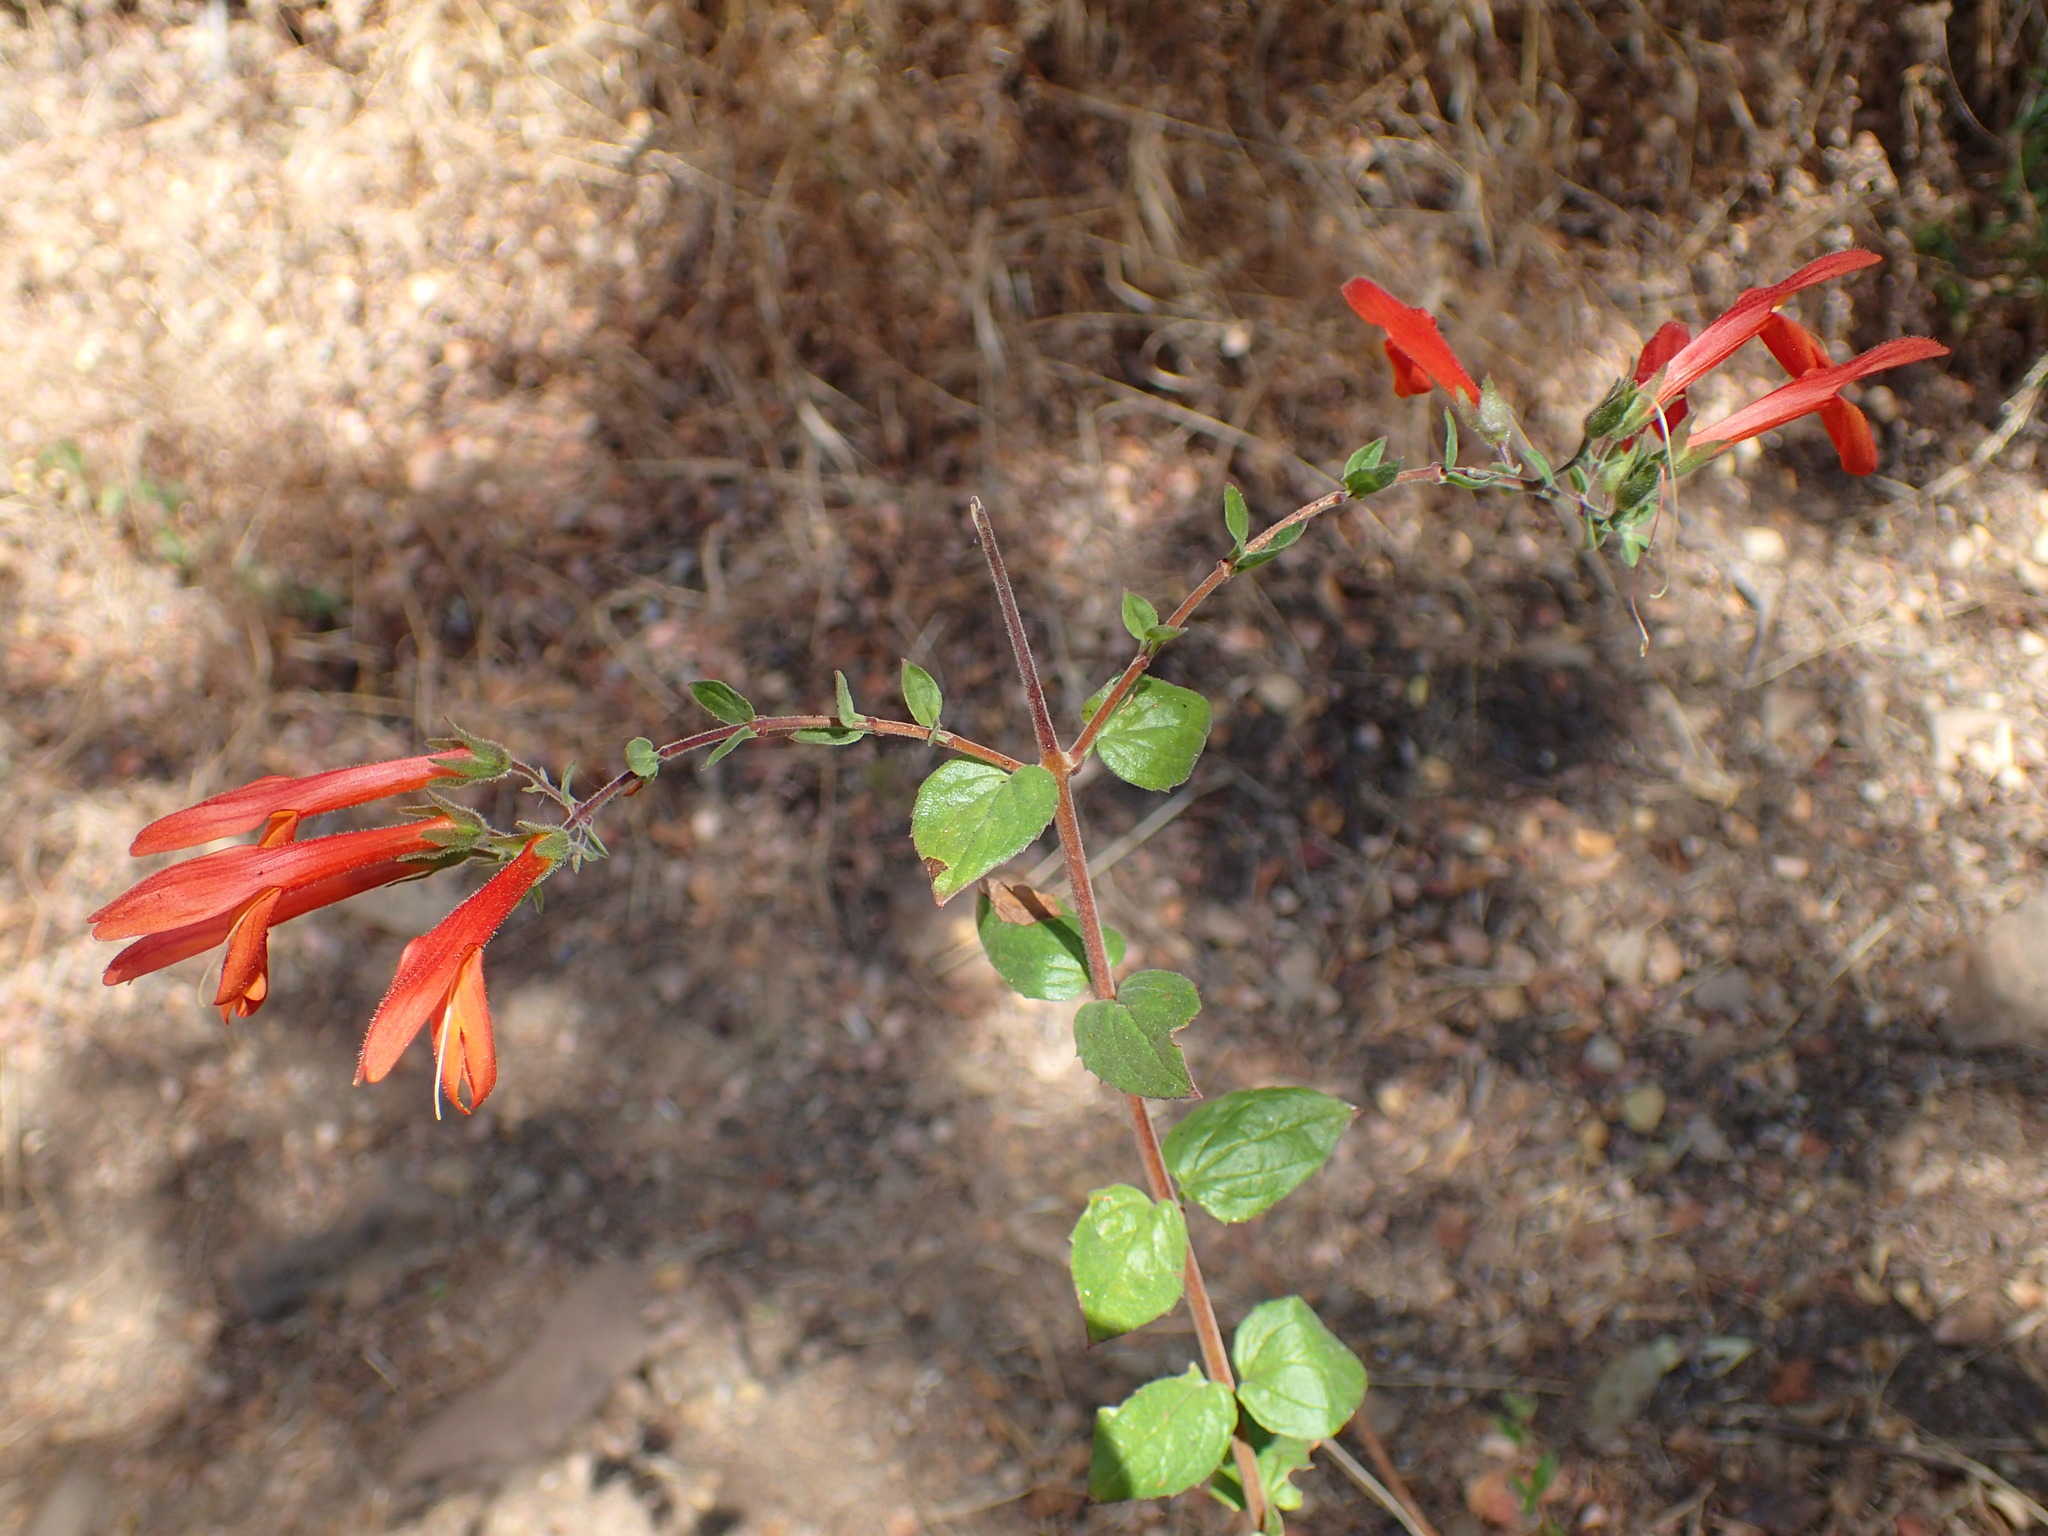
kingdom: Plantae
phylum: Tracheophyta
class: Magnoliopsida
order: Lamiales
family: Plantaginaceae
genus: Keckiella
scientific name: Keckiella cordifolia
